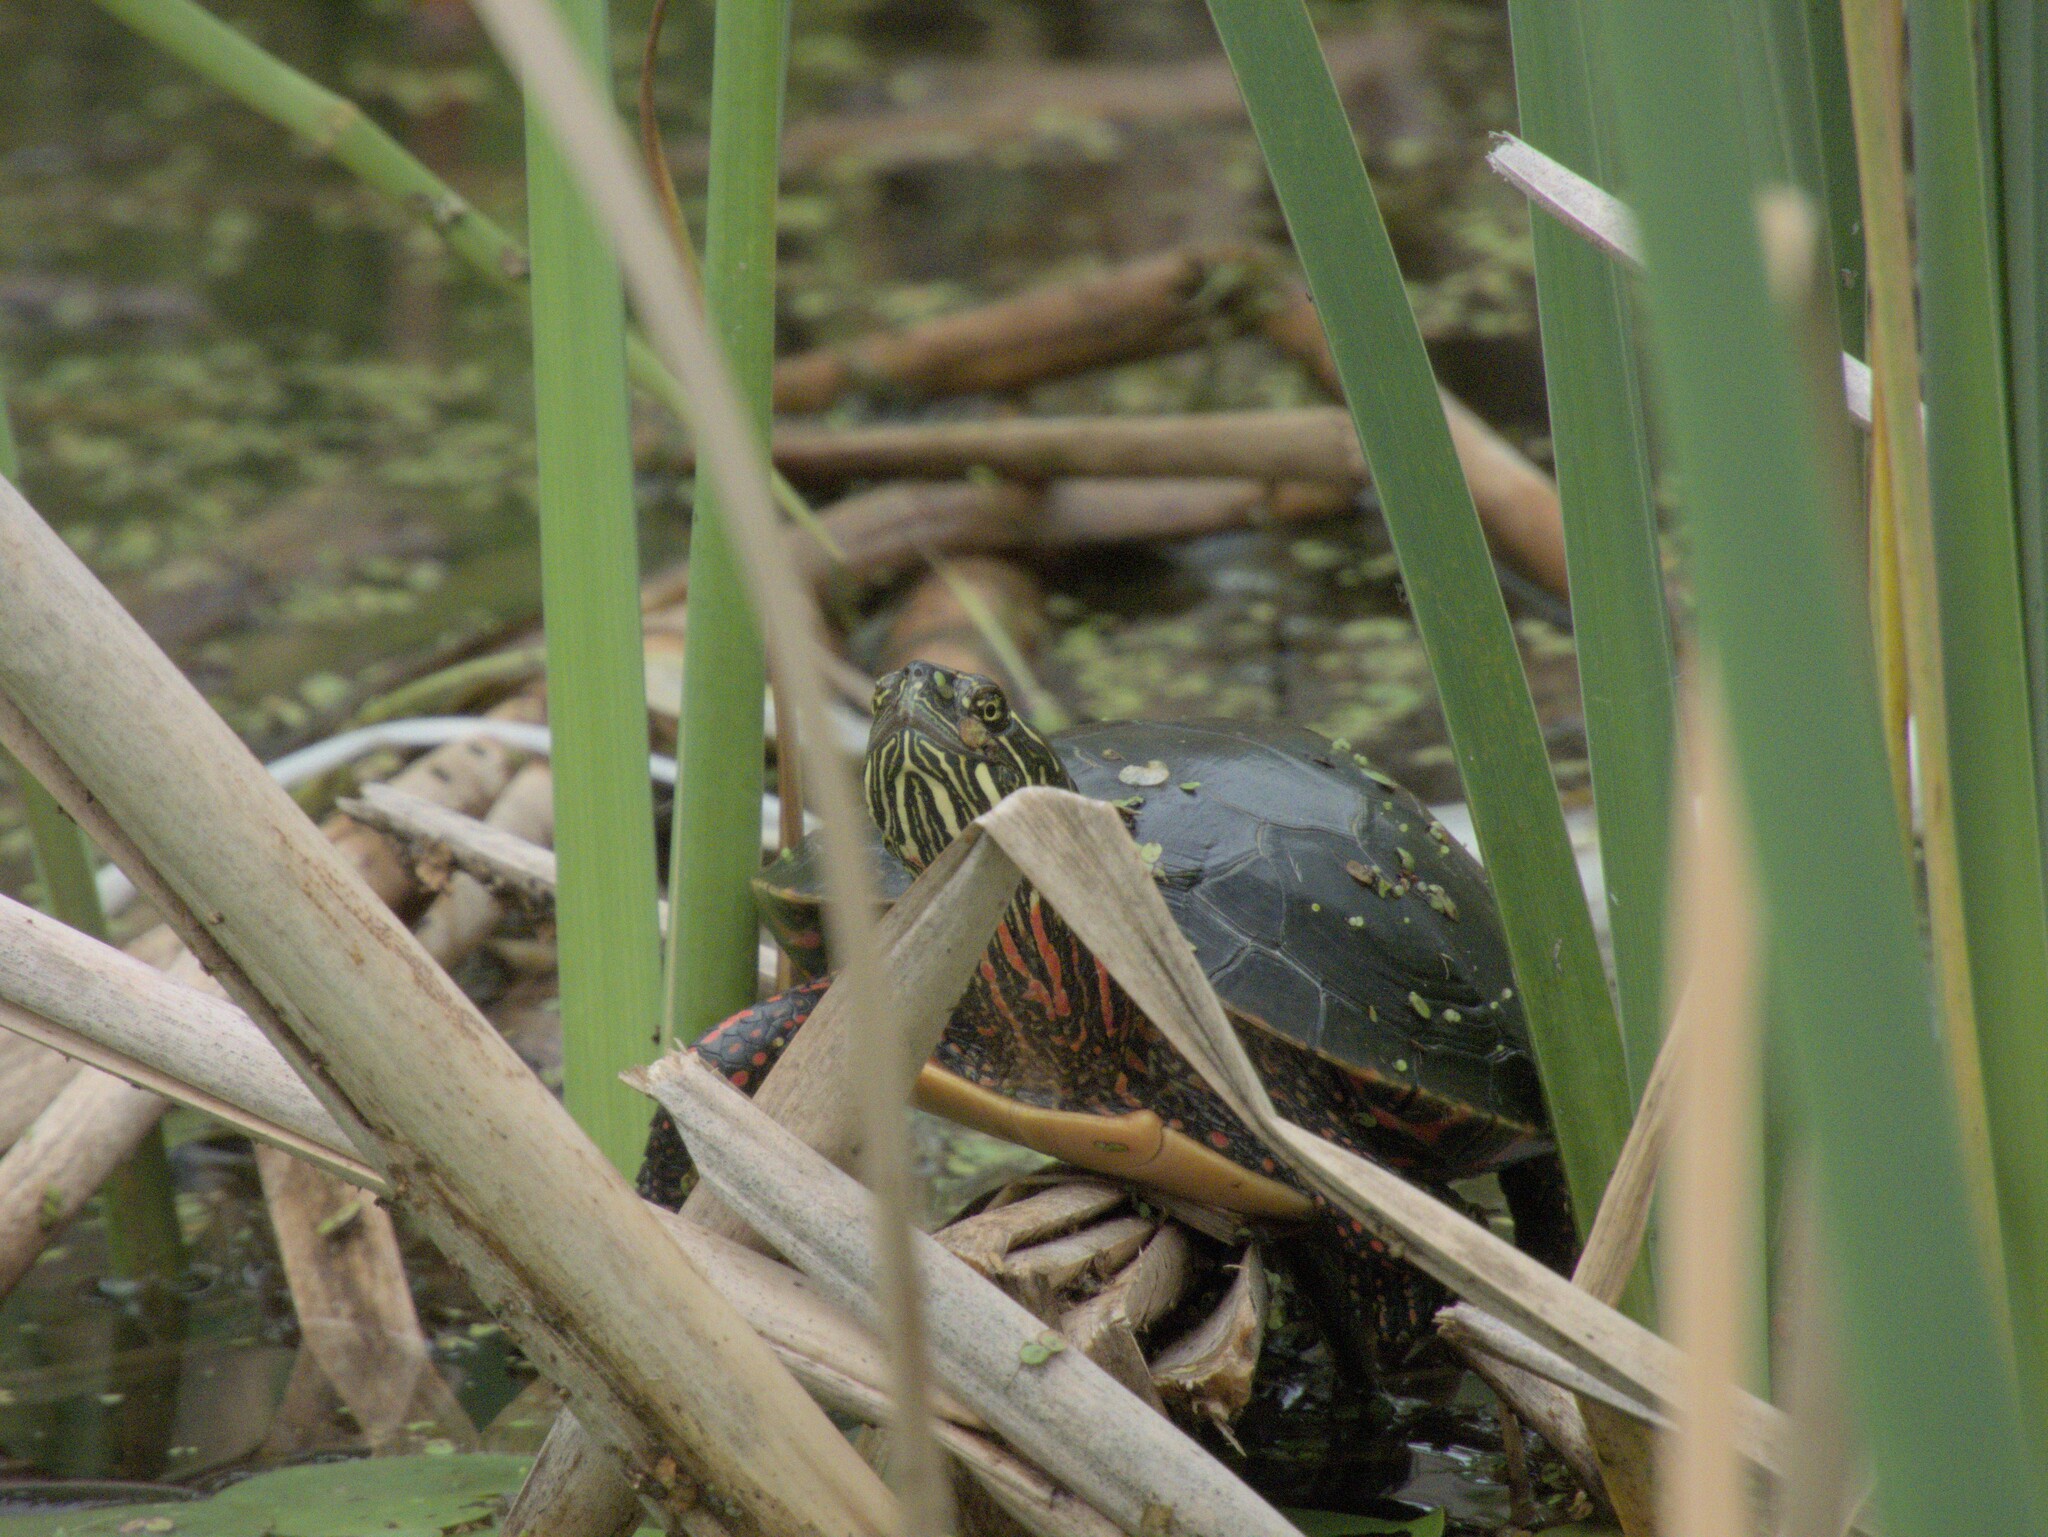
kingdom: Animalia
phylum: Chordata
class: Testudines
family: Emydidae
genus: Chrysemys
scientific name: Chrysemys picta
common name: Painted turtle
